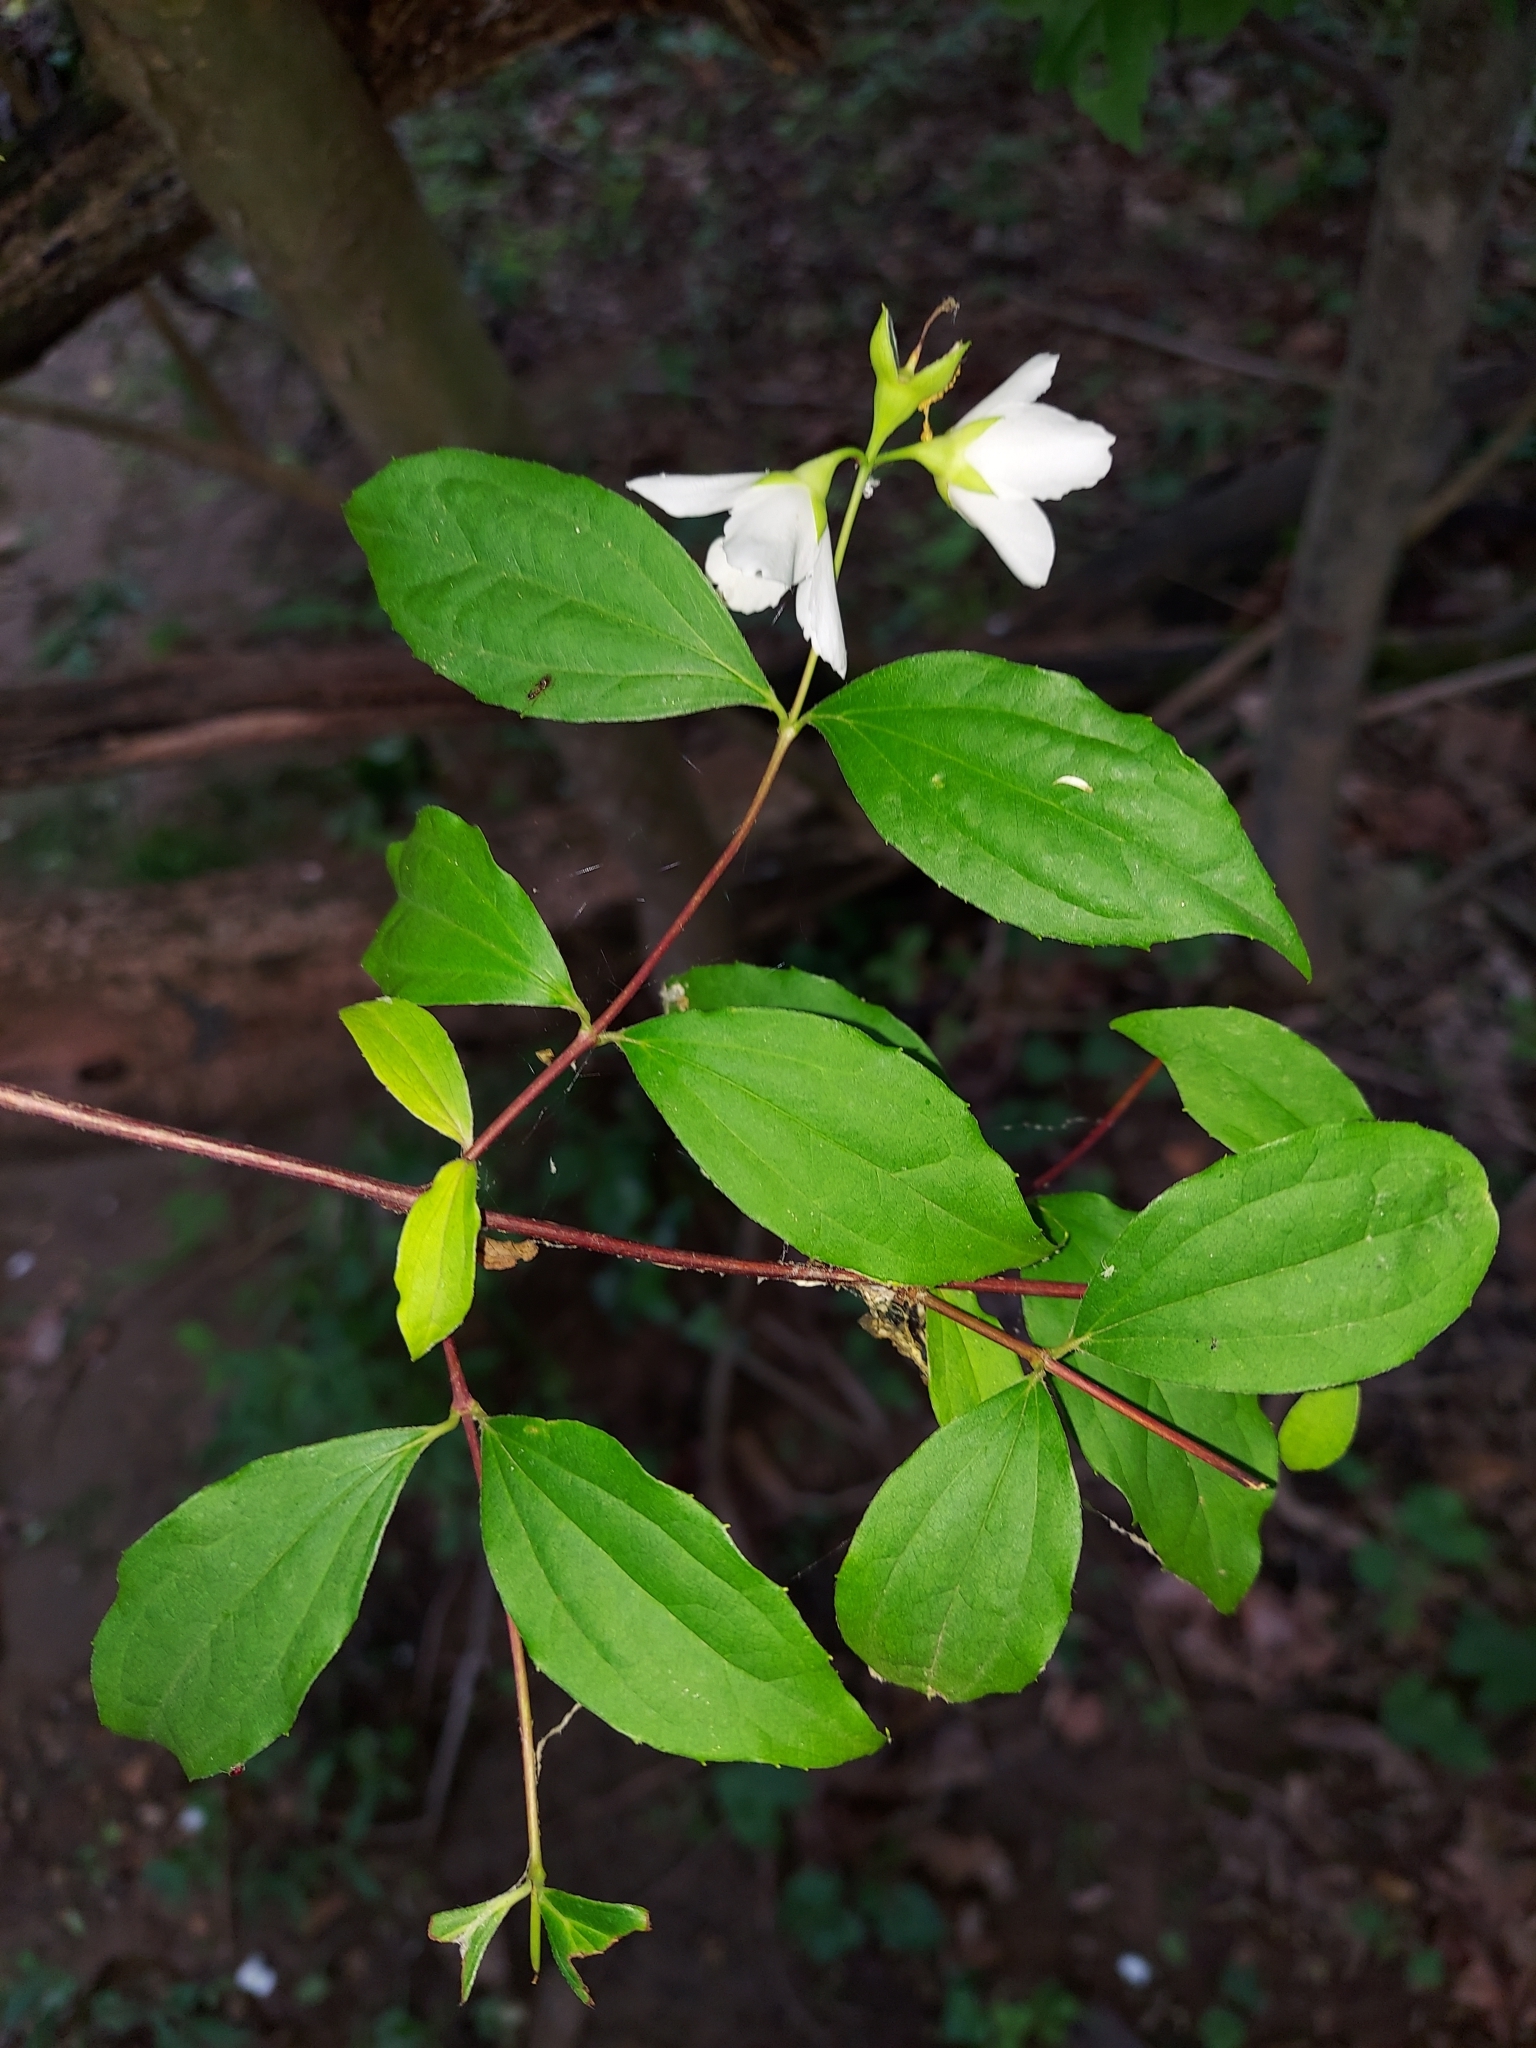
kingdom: Plantae
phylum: Tracheophyta
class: Magnoliopsida
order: Cornales
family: Hydrangeaceae
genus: Philadelphus
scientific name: Philadelphus coronarius
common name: Mock orange
